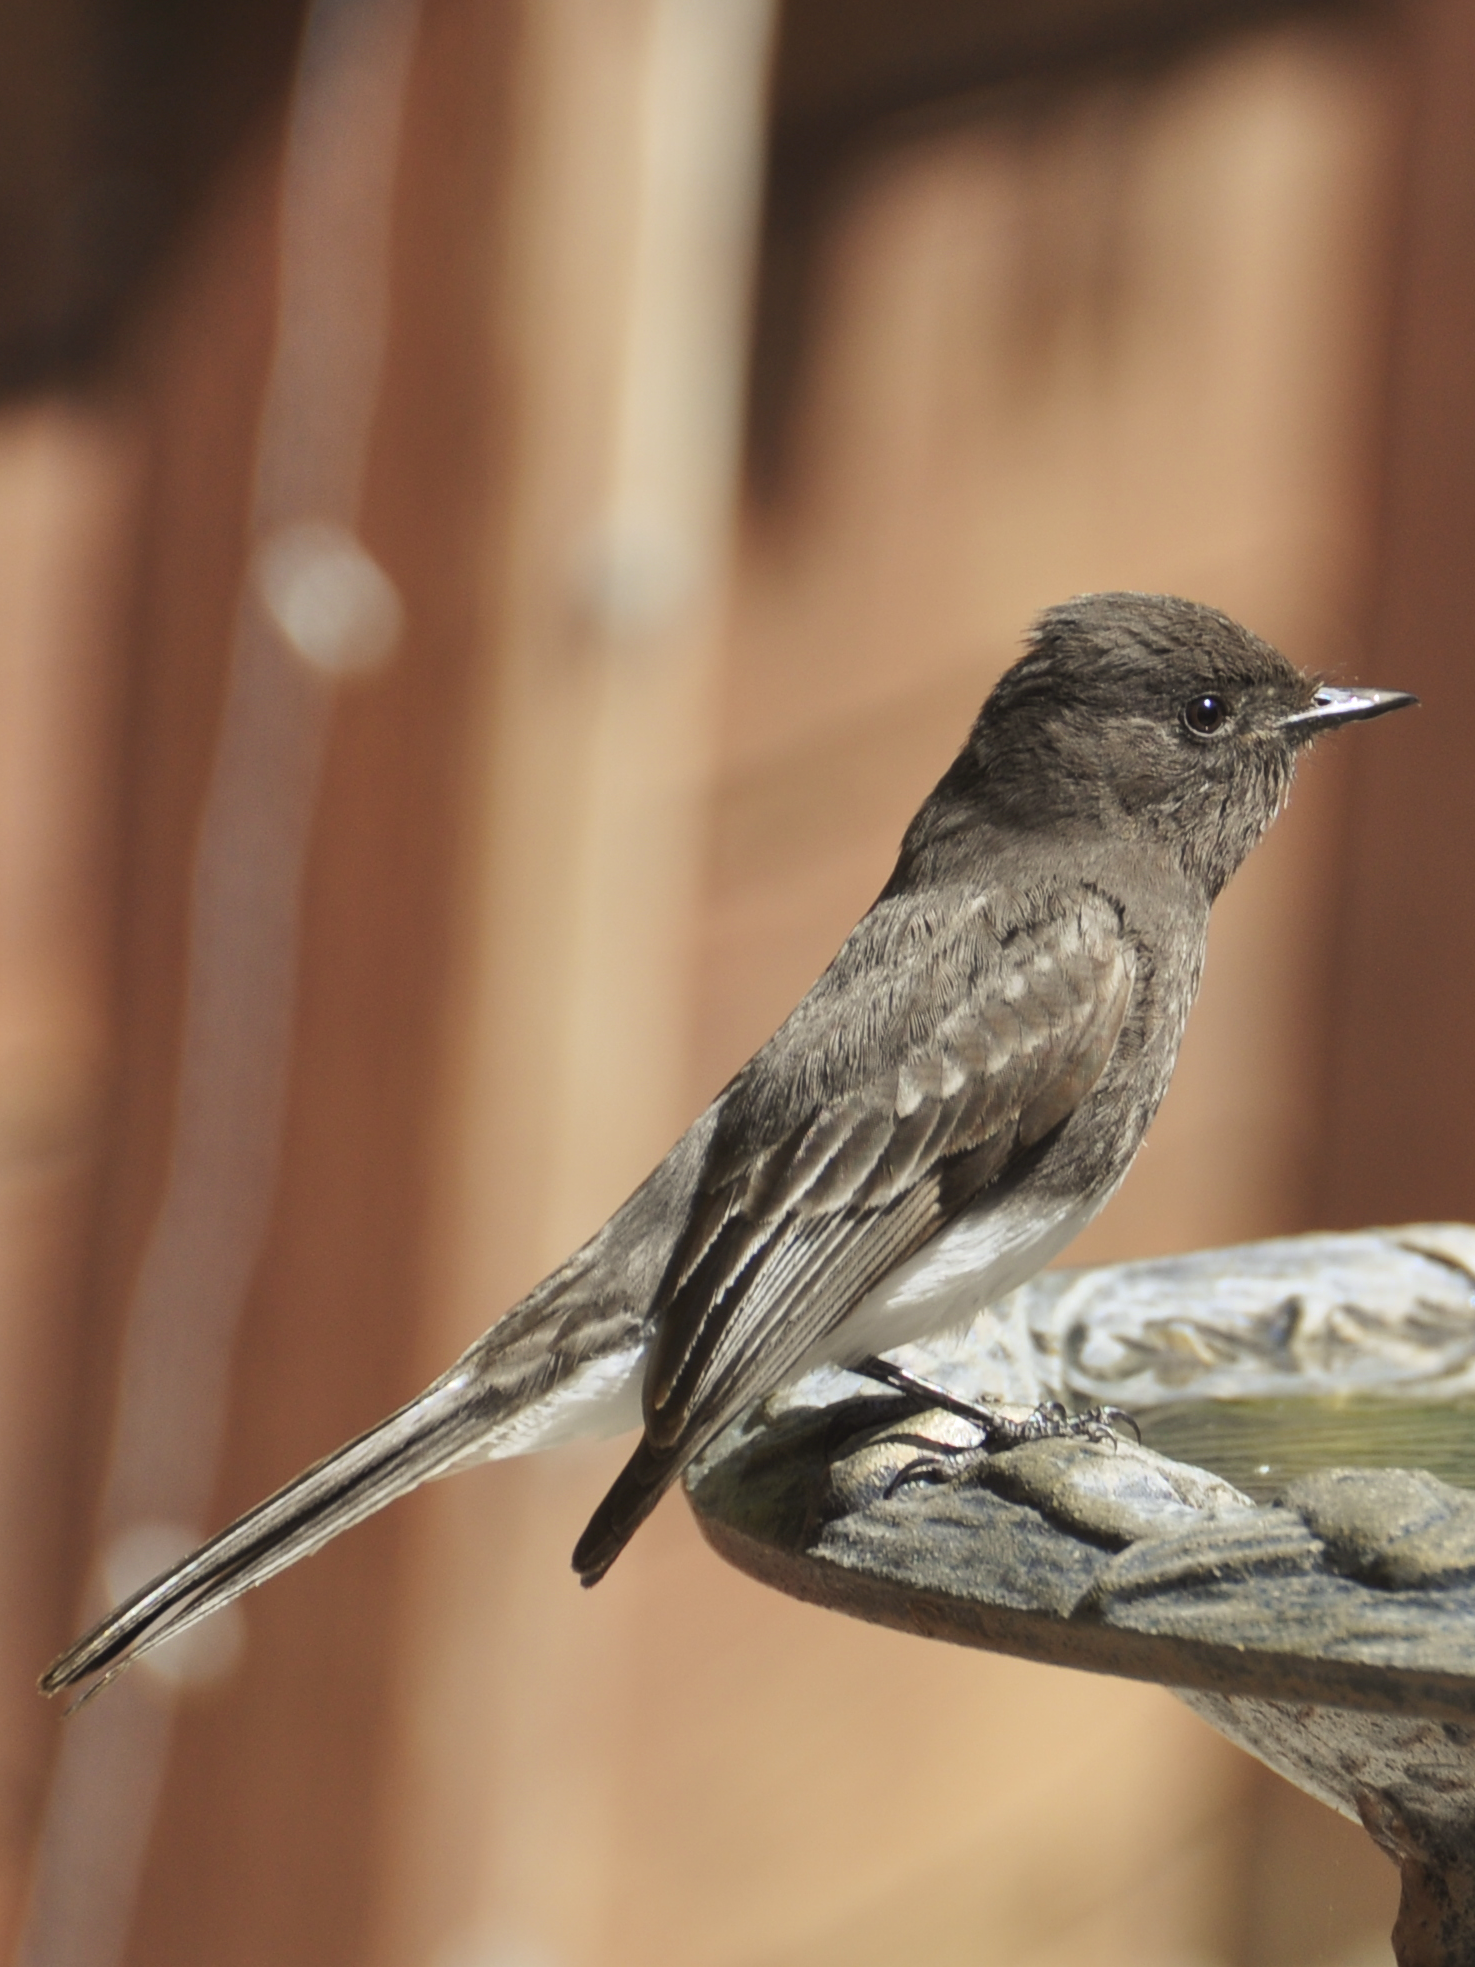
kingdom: Animalia
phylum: Chordata
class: Aves
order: Passeriformes
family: Tyrannidae
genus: Sayornis
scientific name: Sayornis nigricans
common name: Black phoebe
